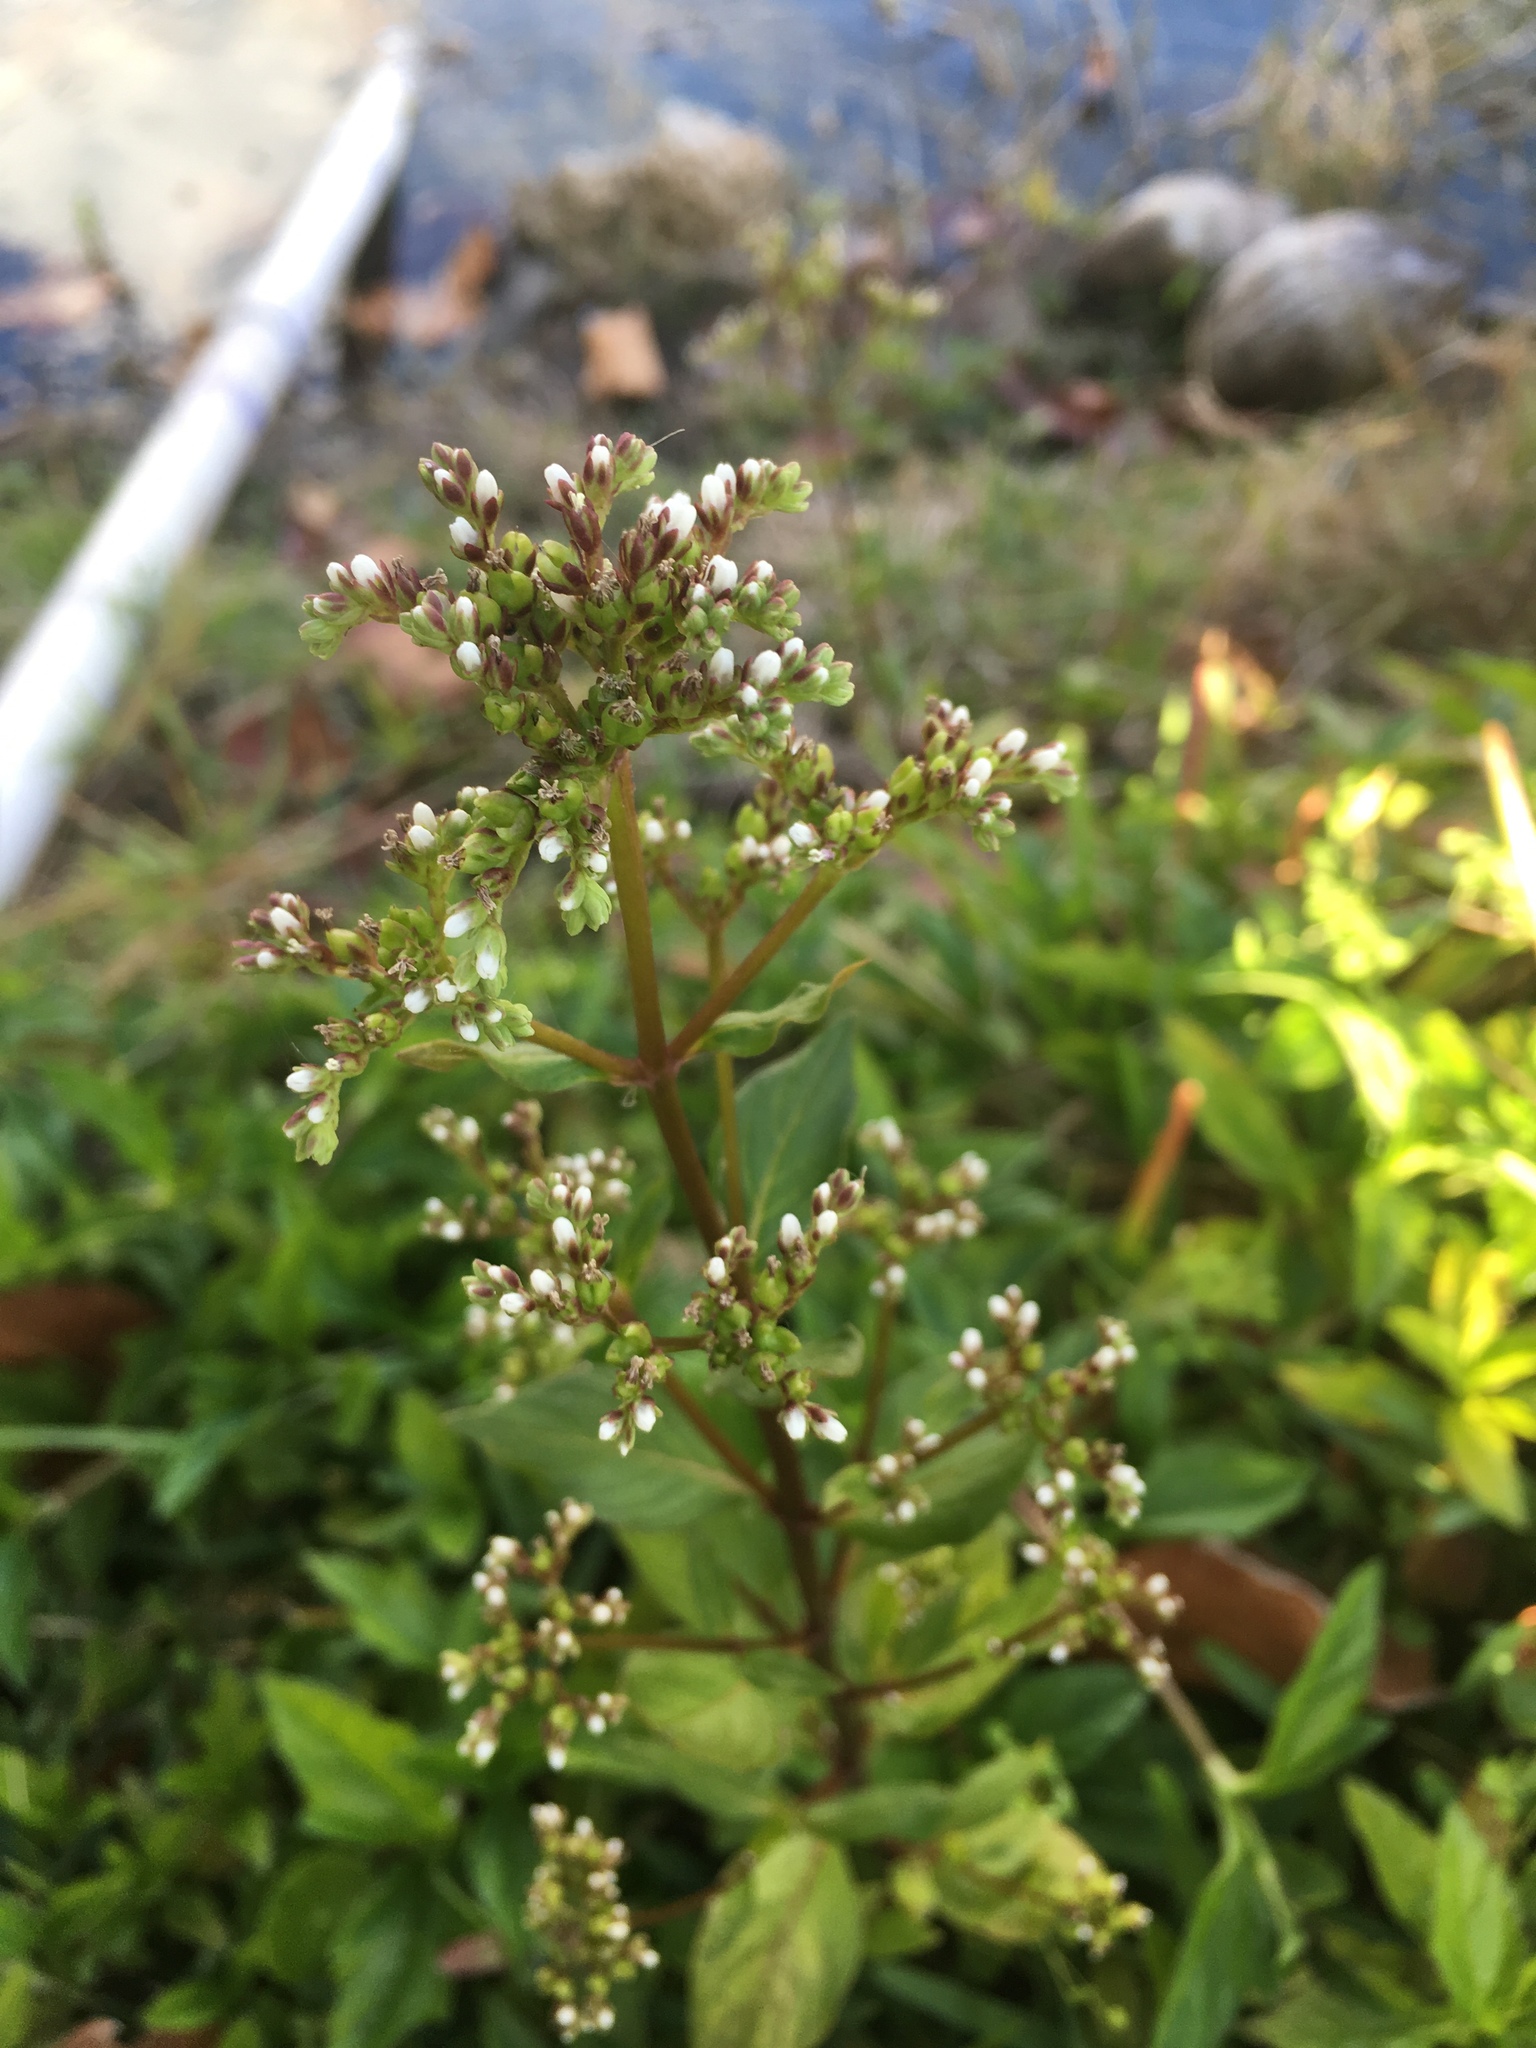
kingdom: Plantae
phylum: Tracheophyta
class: Magnoliopsida
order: Gentianales
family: Loganiaceae
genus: Mitreola
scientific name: Mitreola petiolata
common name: Lax hornpod
